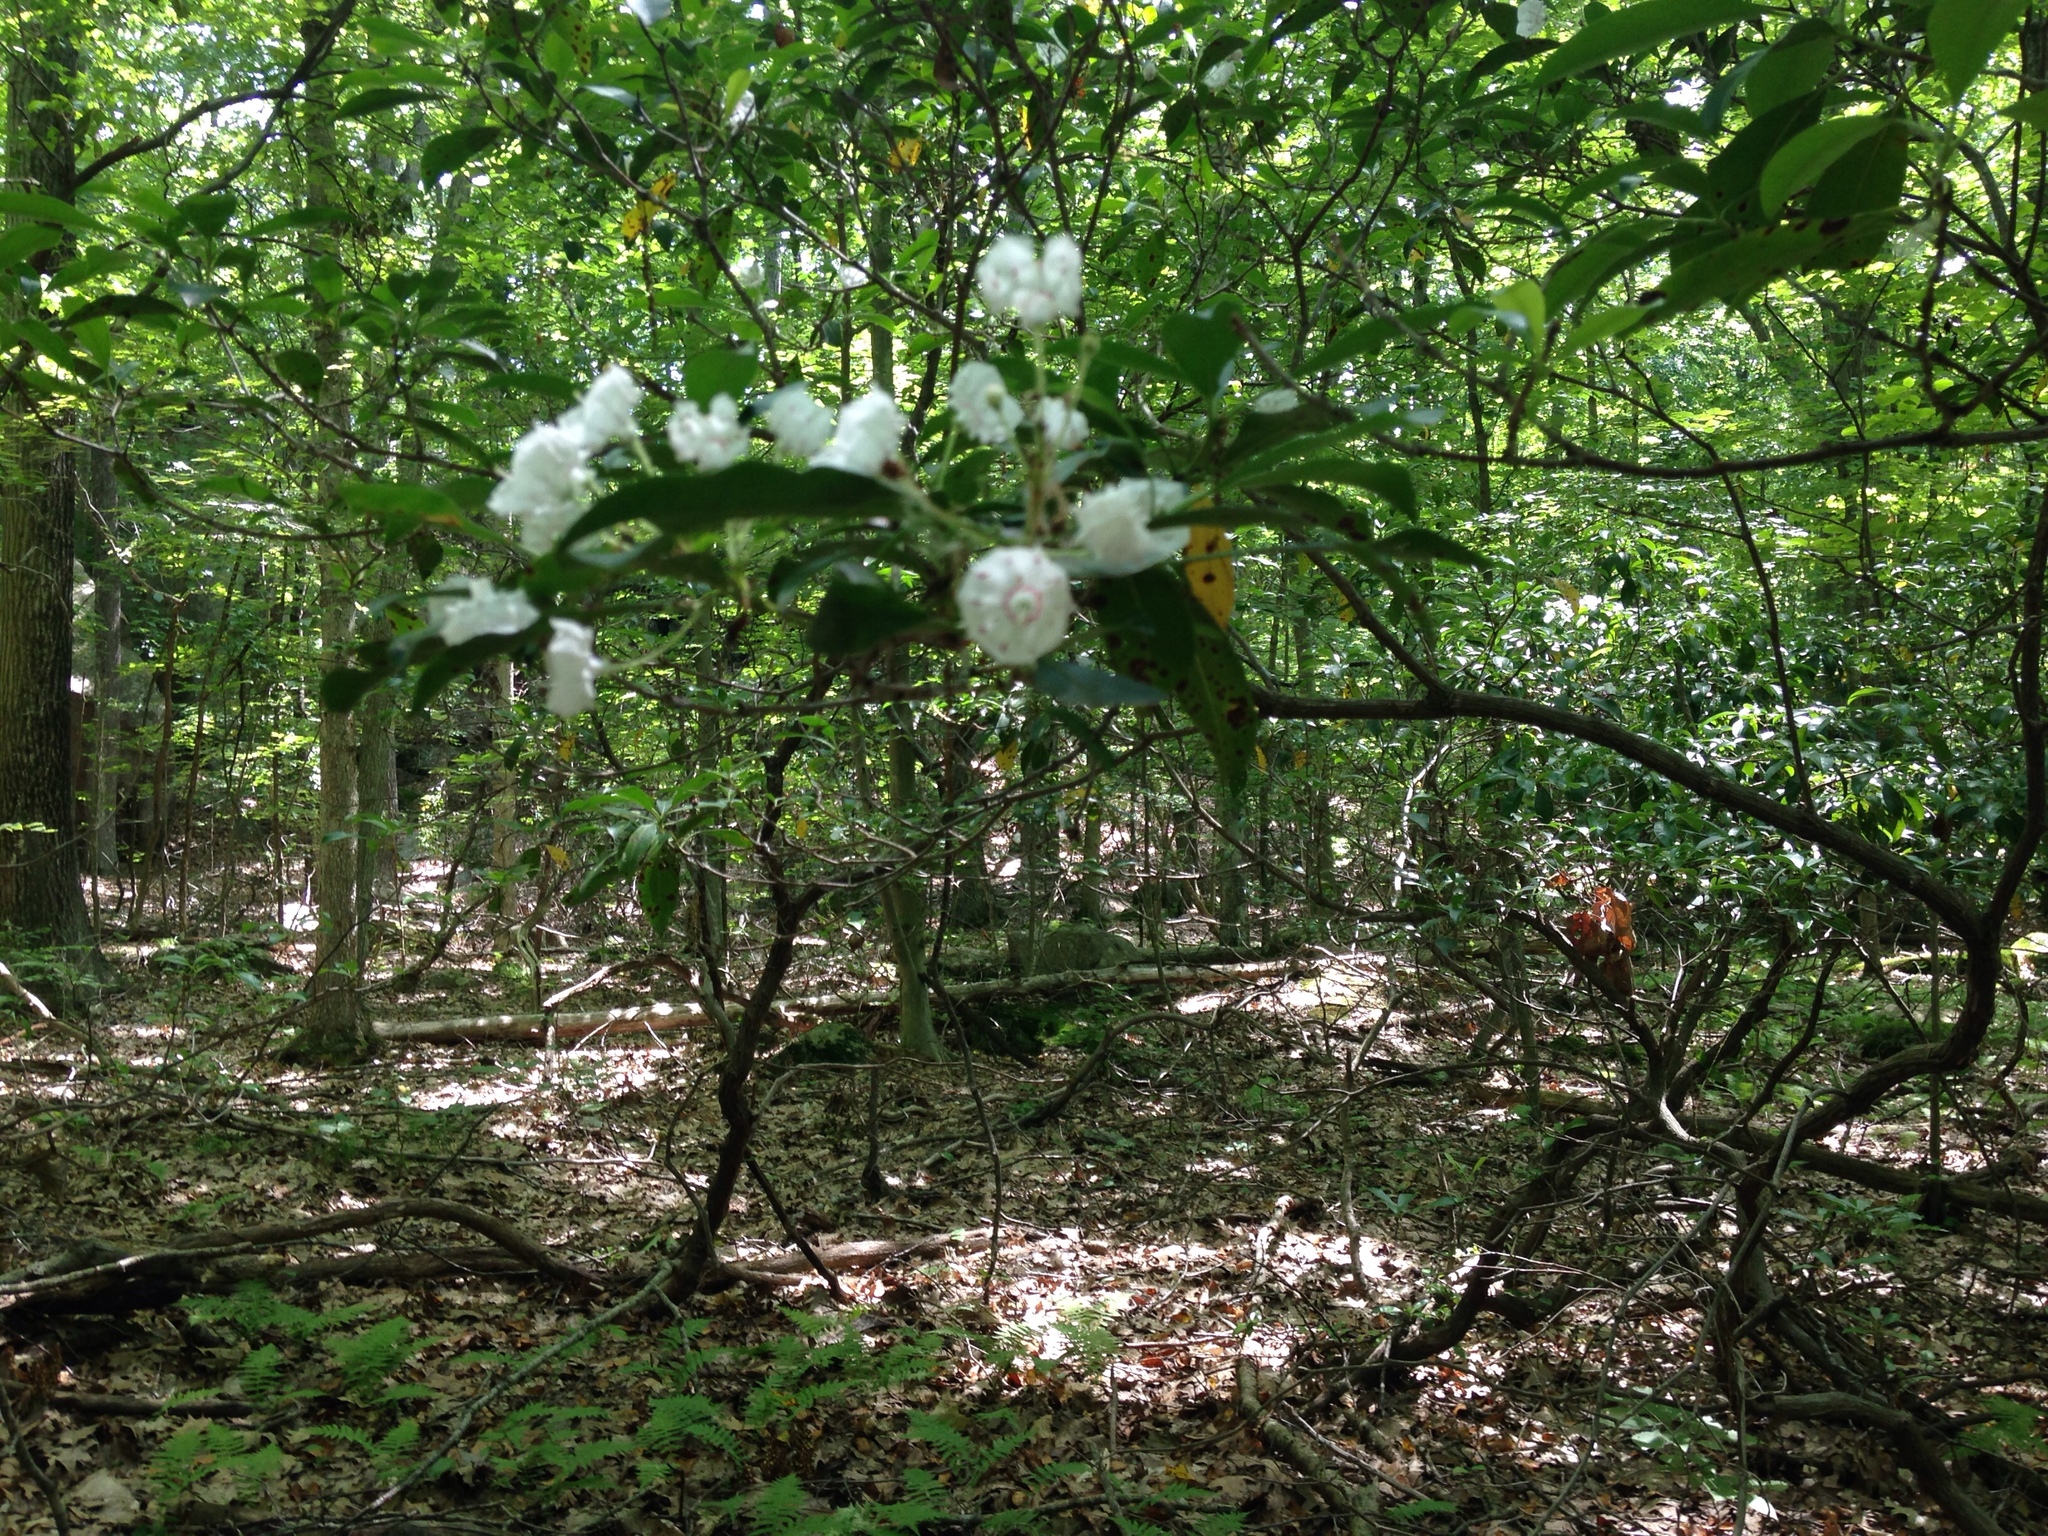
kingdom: Plantae
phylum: Tracheophyta
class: Magnoliopsida
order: Ericales
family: Ericaceae
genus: Kalmia
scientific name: Kalmia latifolia
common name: Mountain-laurel
